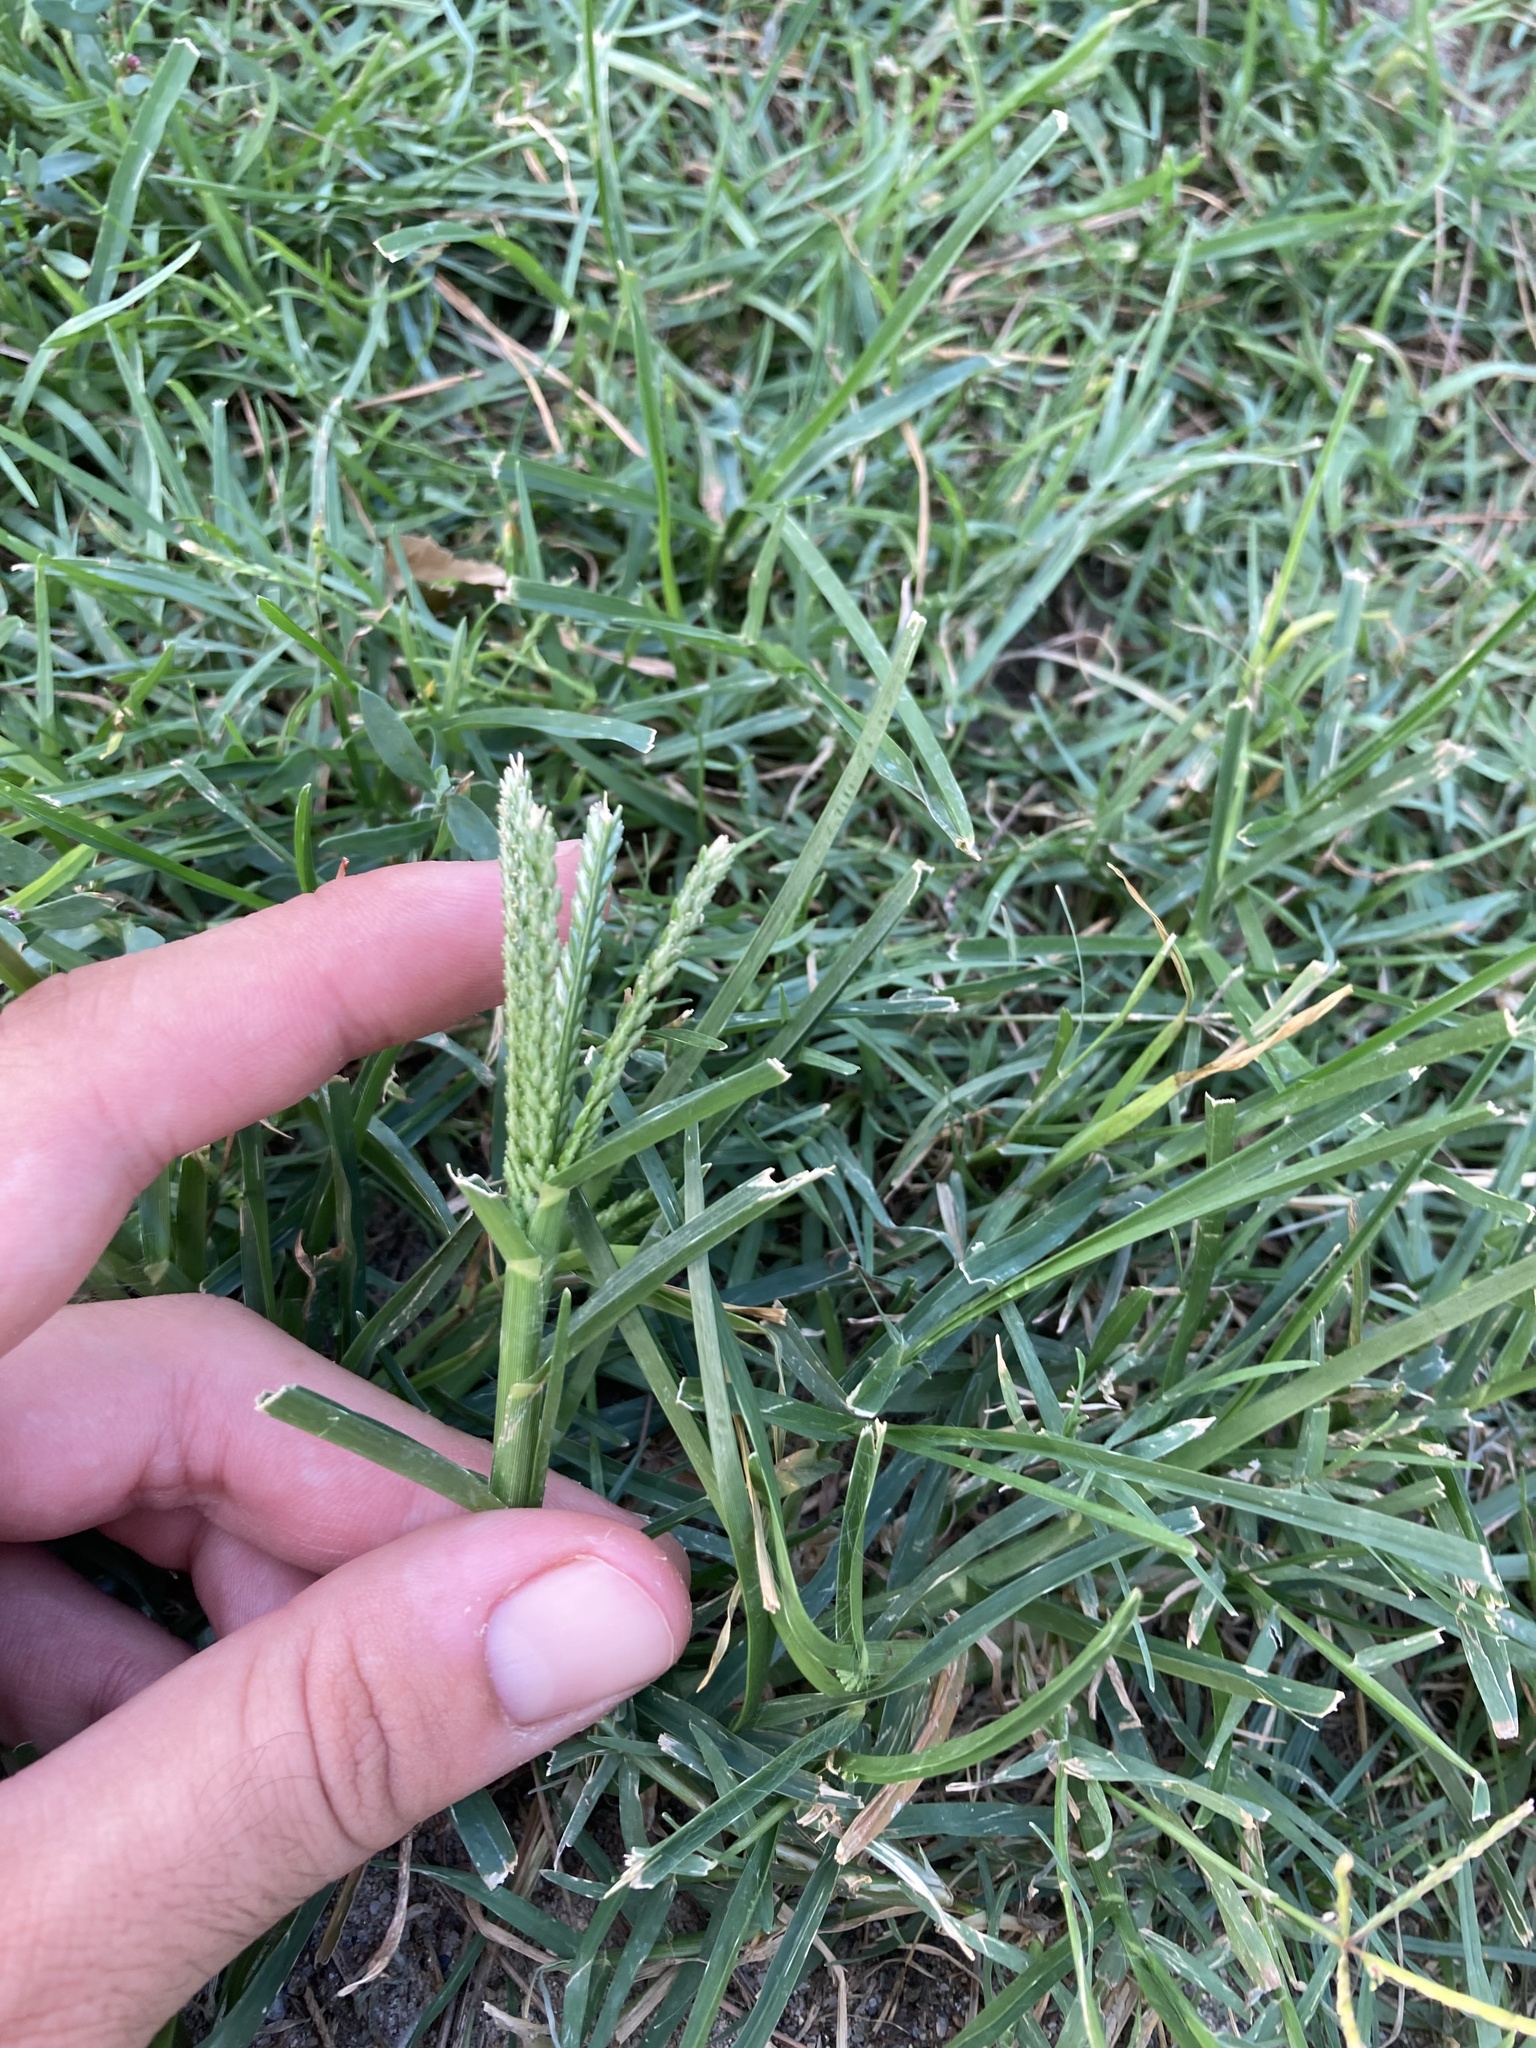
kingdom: Plantae
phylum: Tracheophyta
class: Liliopsida
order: Poales
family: Poaceae
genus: Eleusine
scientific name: Eleusine indica
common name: Yard-grass
